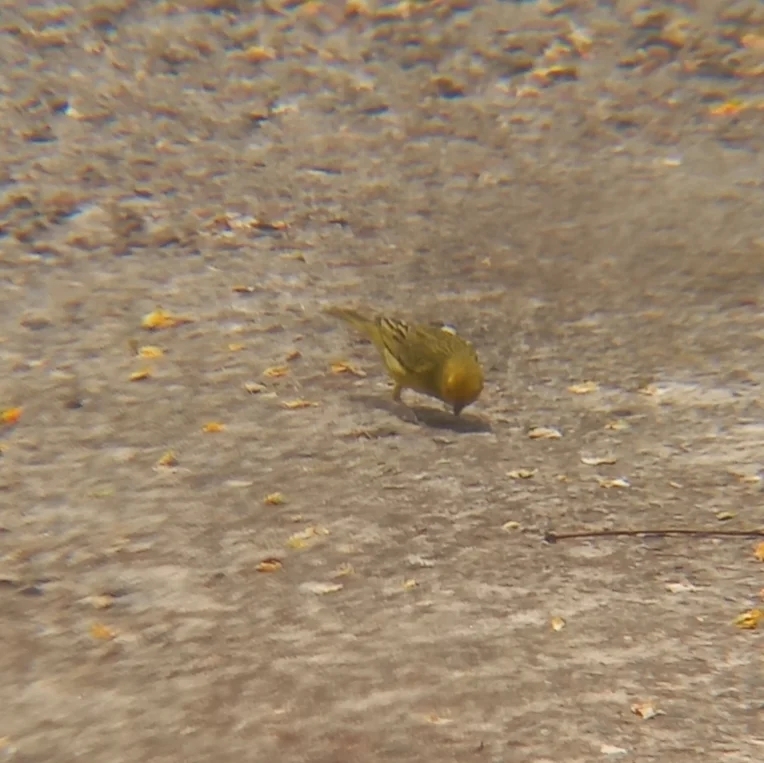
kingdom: Animalia
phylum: Chordata
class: Aves
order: Passeriformes
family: Thraupidae
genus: Sicalis
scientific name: Sicalis flaveola
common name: Saffron finch
